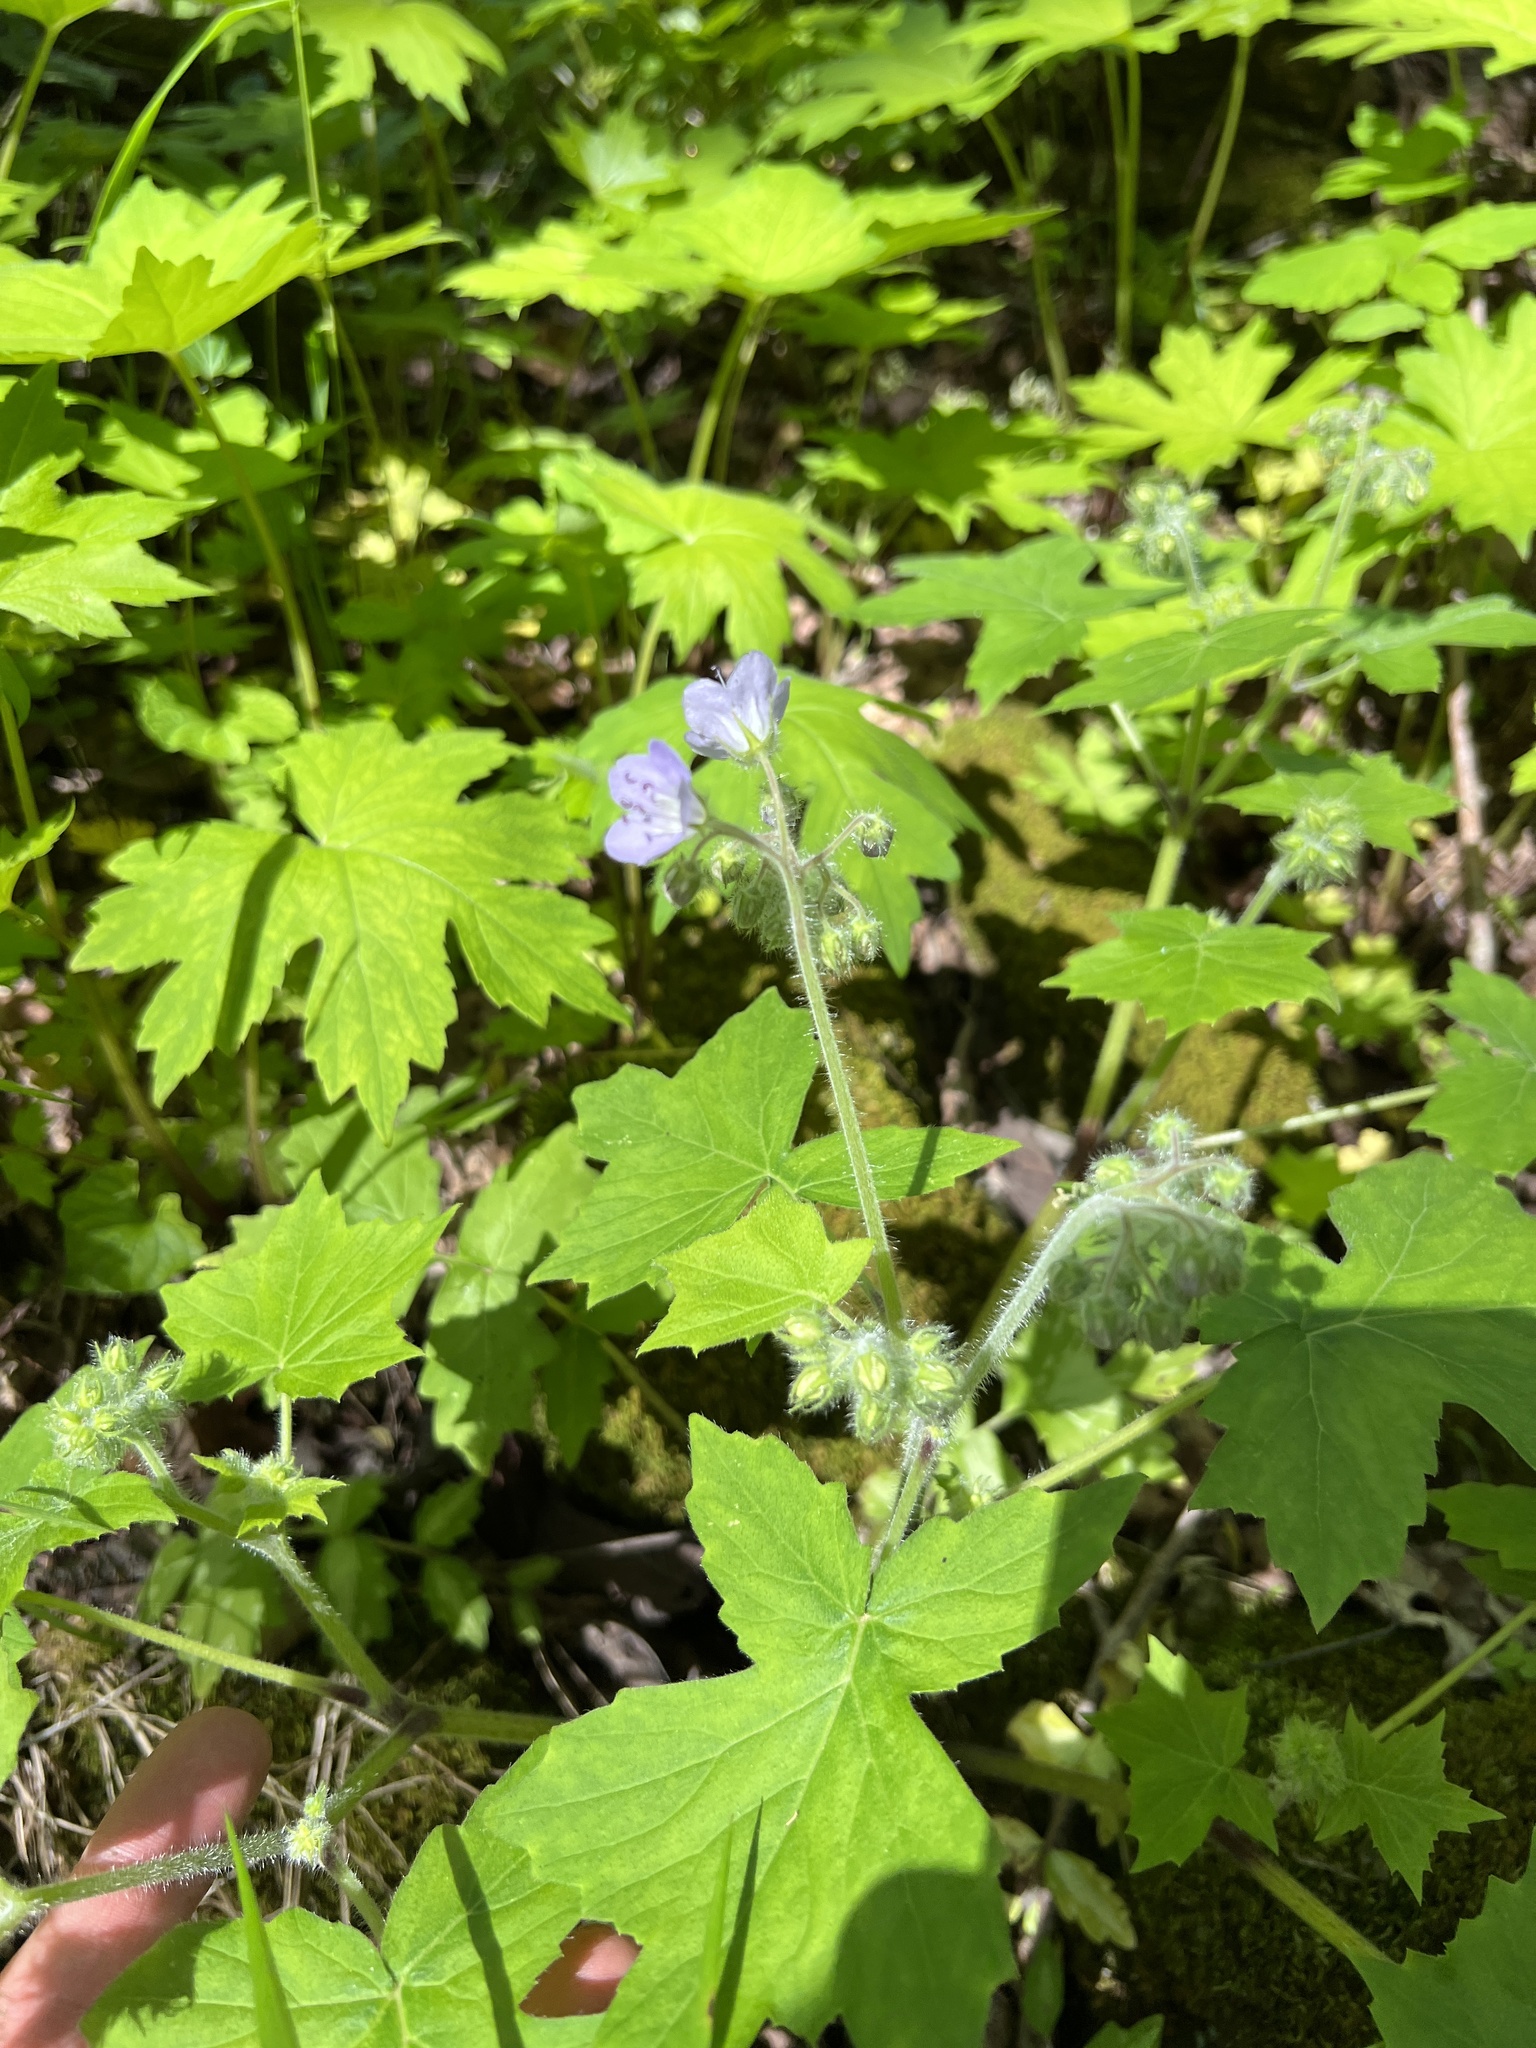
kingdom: Plantae
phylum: Tracheophyta
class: Magnoliopsida
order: Boraginales
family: Hydrophyllaceae
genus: Hydrophyllum
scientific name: Hydrophyllum appendiculatum
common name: Appendaged waterleaf
